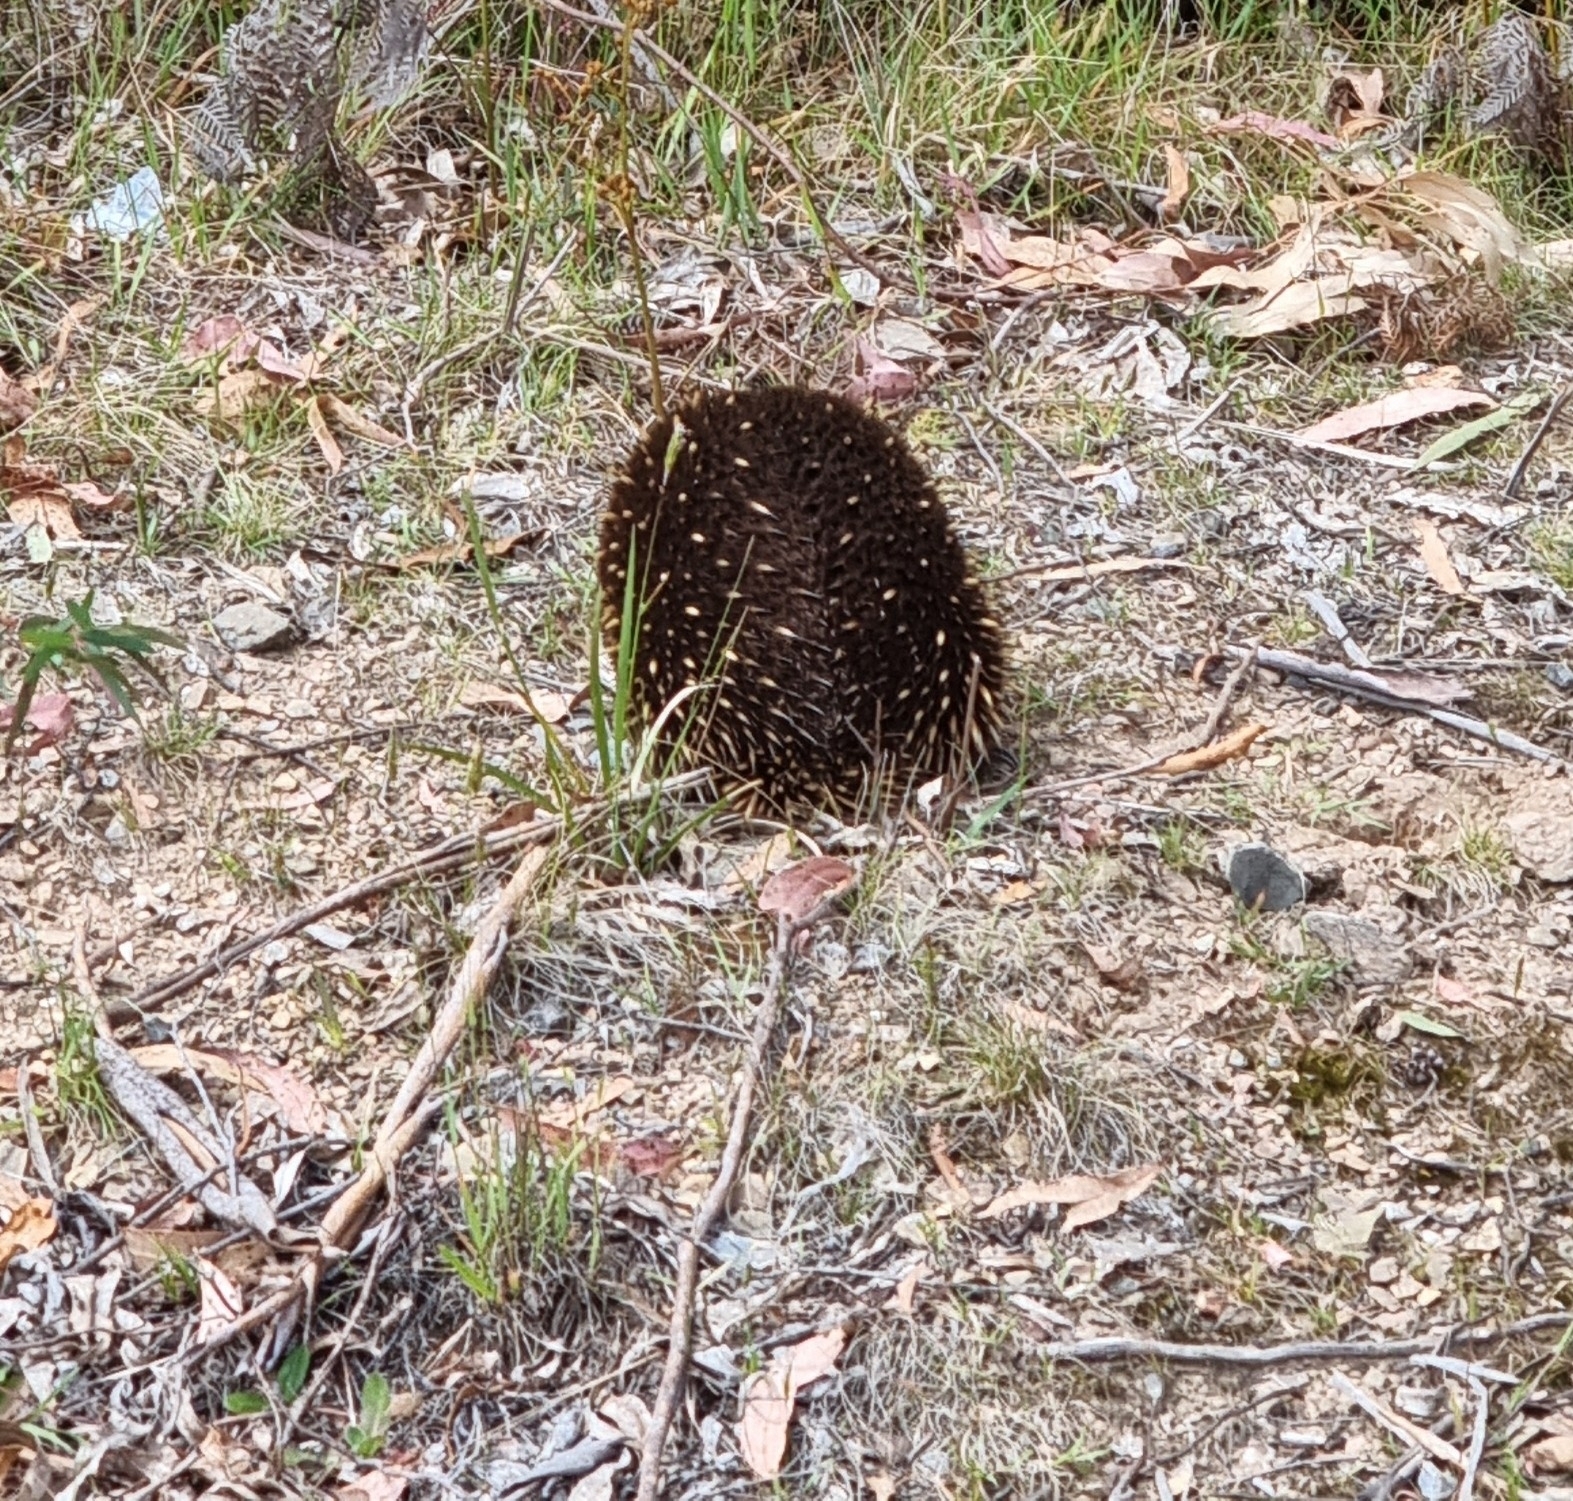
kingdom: Animalia
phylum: Chordata
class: Mammalia
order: Monotremata
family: Tachyglossidae
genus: Tachyglossus
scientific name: Tachyglossus aculeatus
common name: Short-beaked echidna
